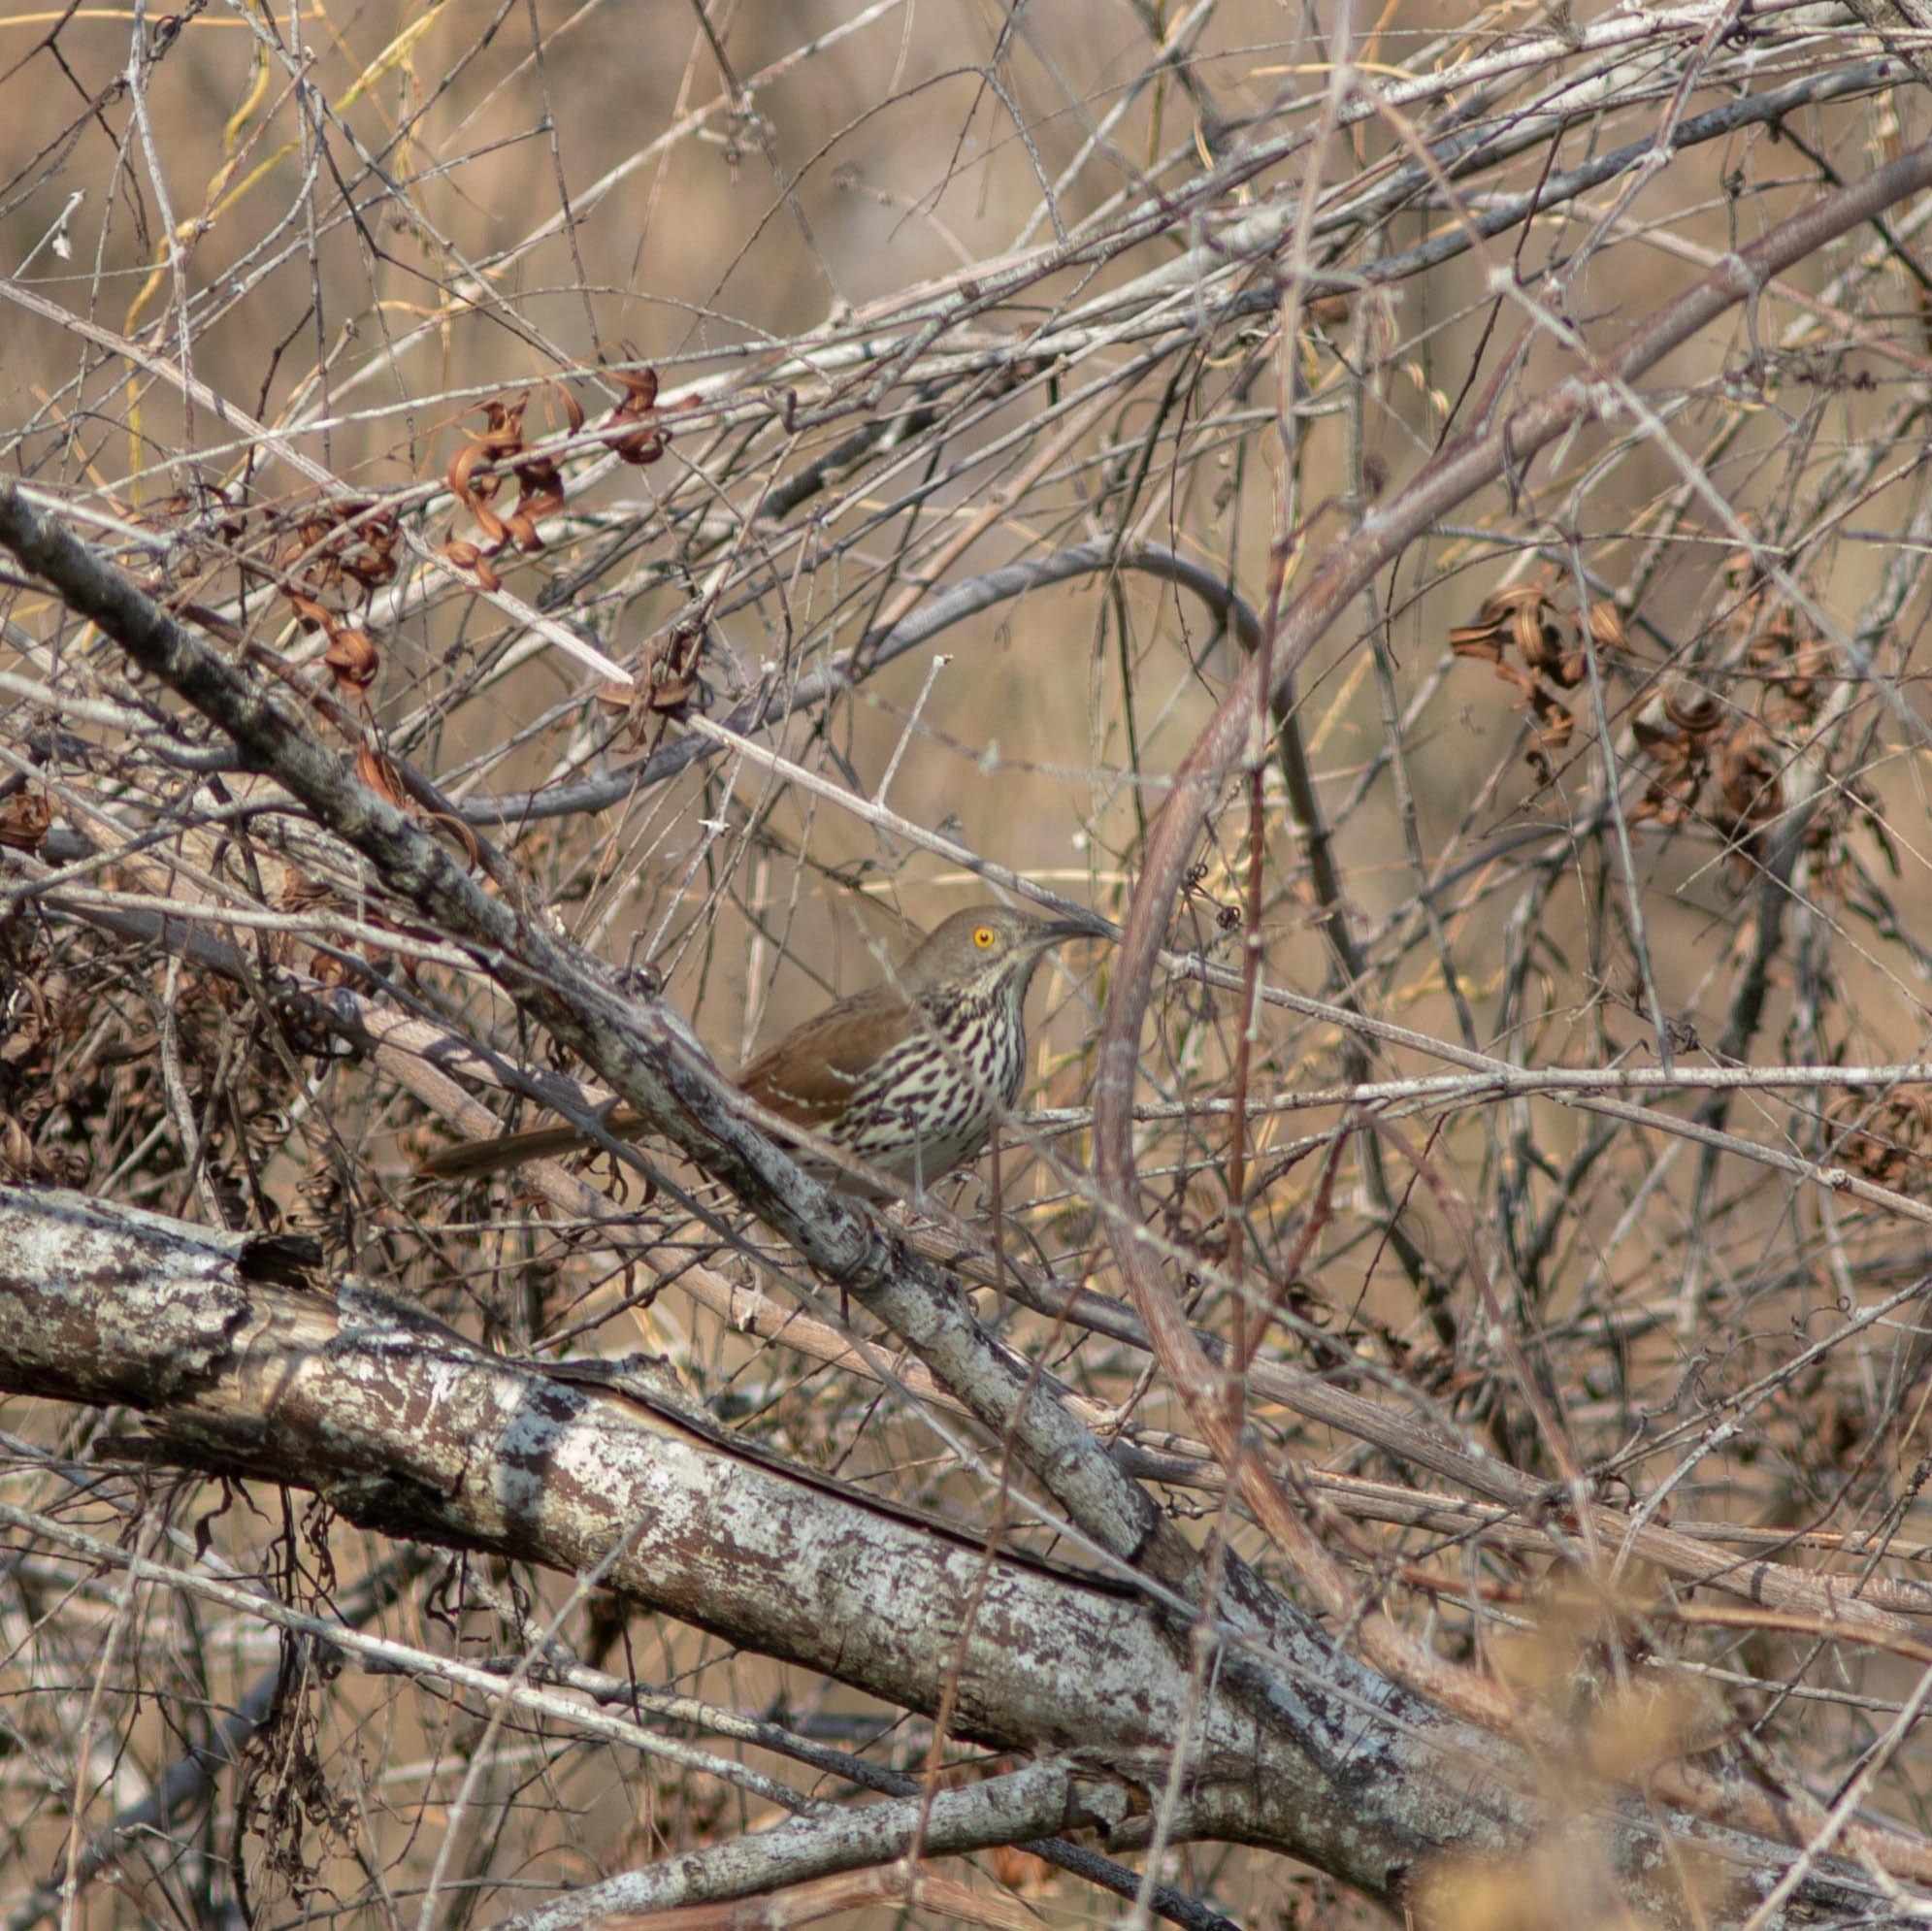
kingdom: Animalia
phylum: Chordata
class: Aves
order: Passeriformes
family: Mimidae
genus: Toxostoma
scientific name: Toxostoma longirostre
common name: Long-billed thrasher
